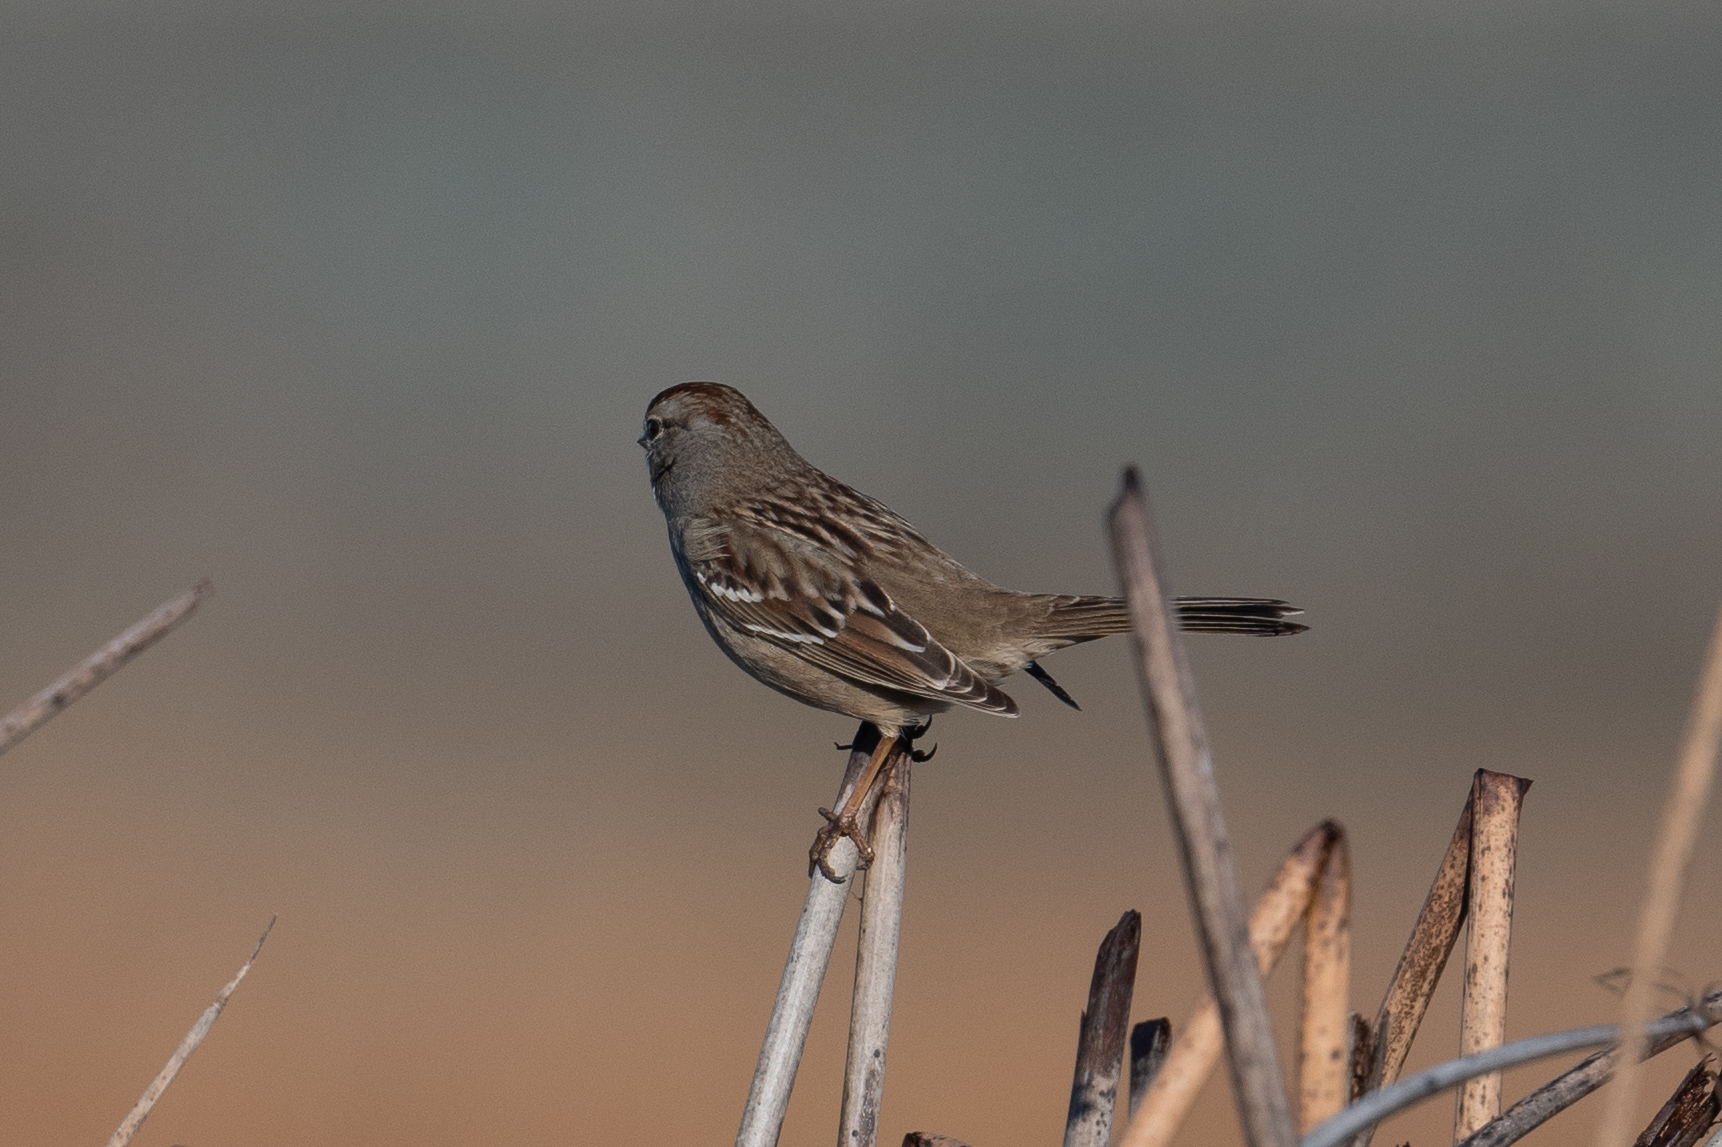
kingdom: Animalia
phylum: Chordata
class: Aves
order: Passeriformes
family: Passerellidae
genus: Zonotrichia
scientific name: Zonotrichia leucophrys
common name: White-crowned sparrow
